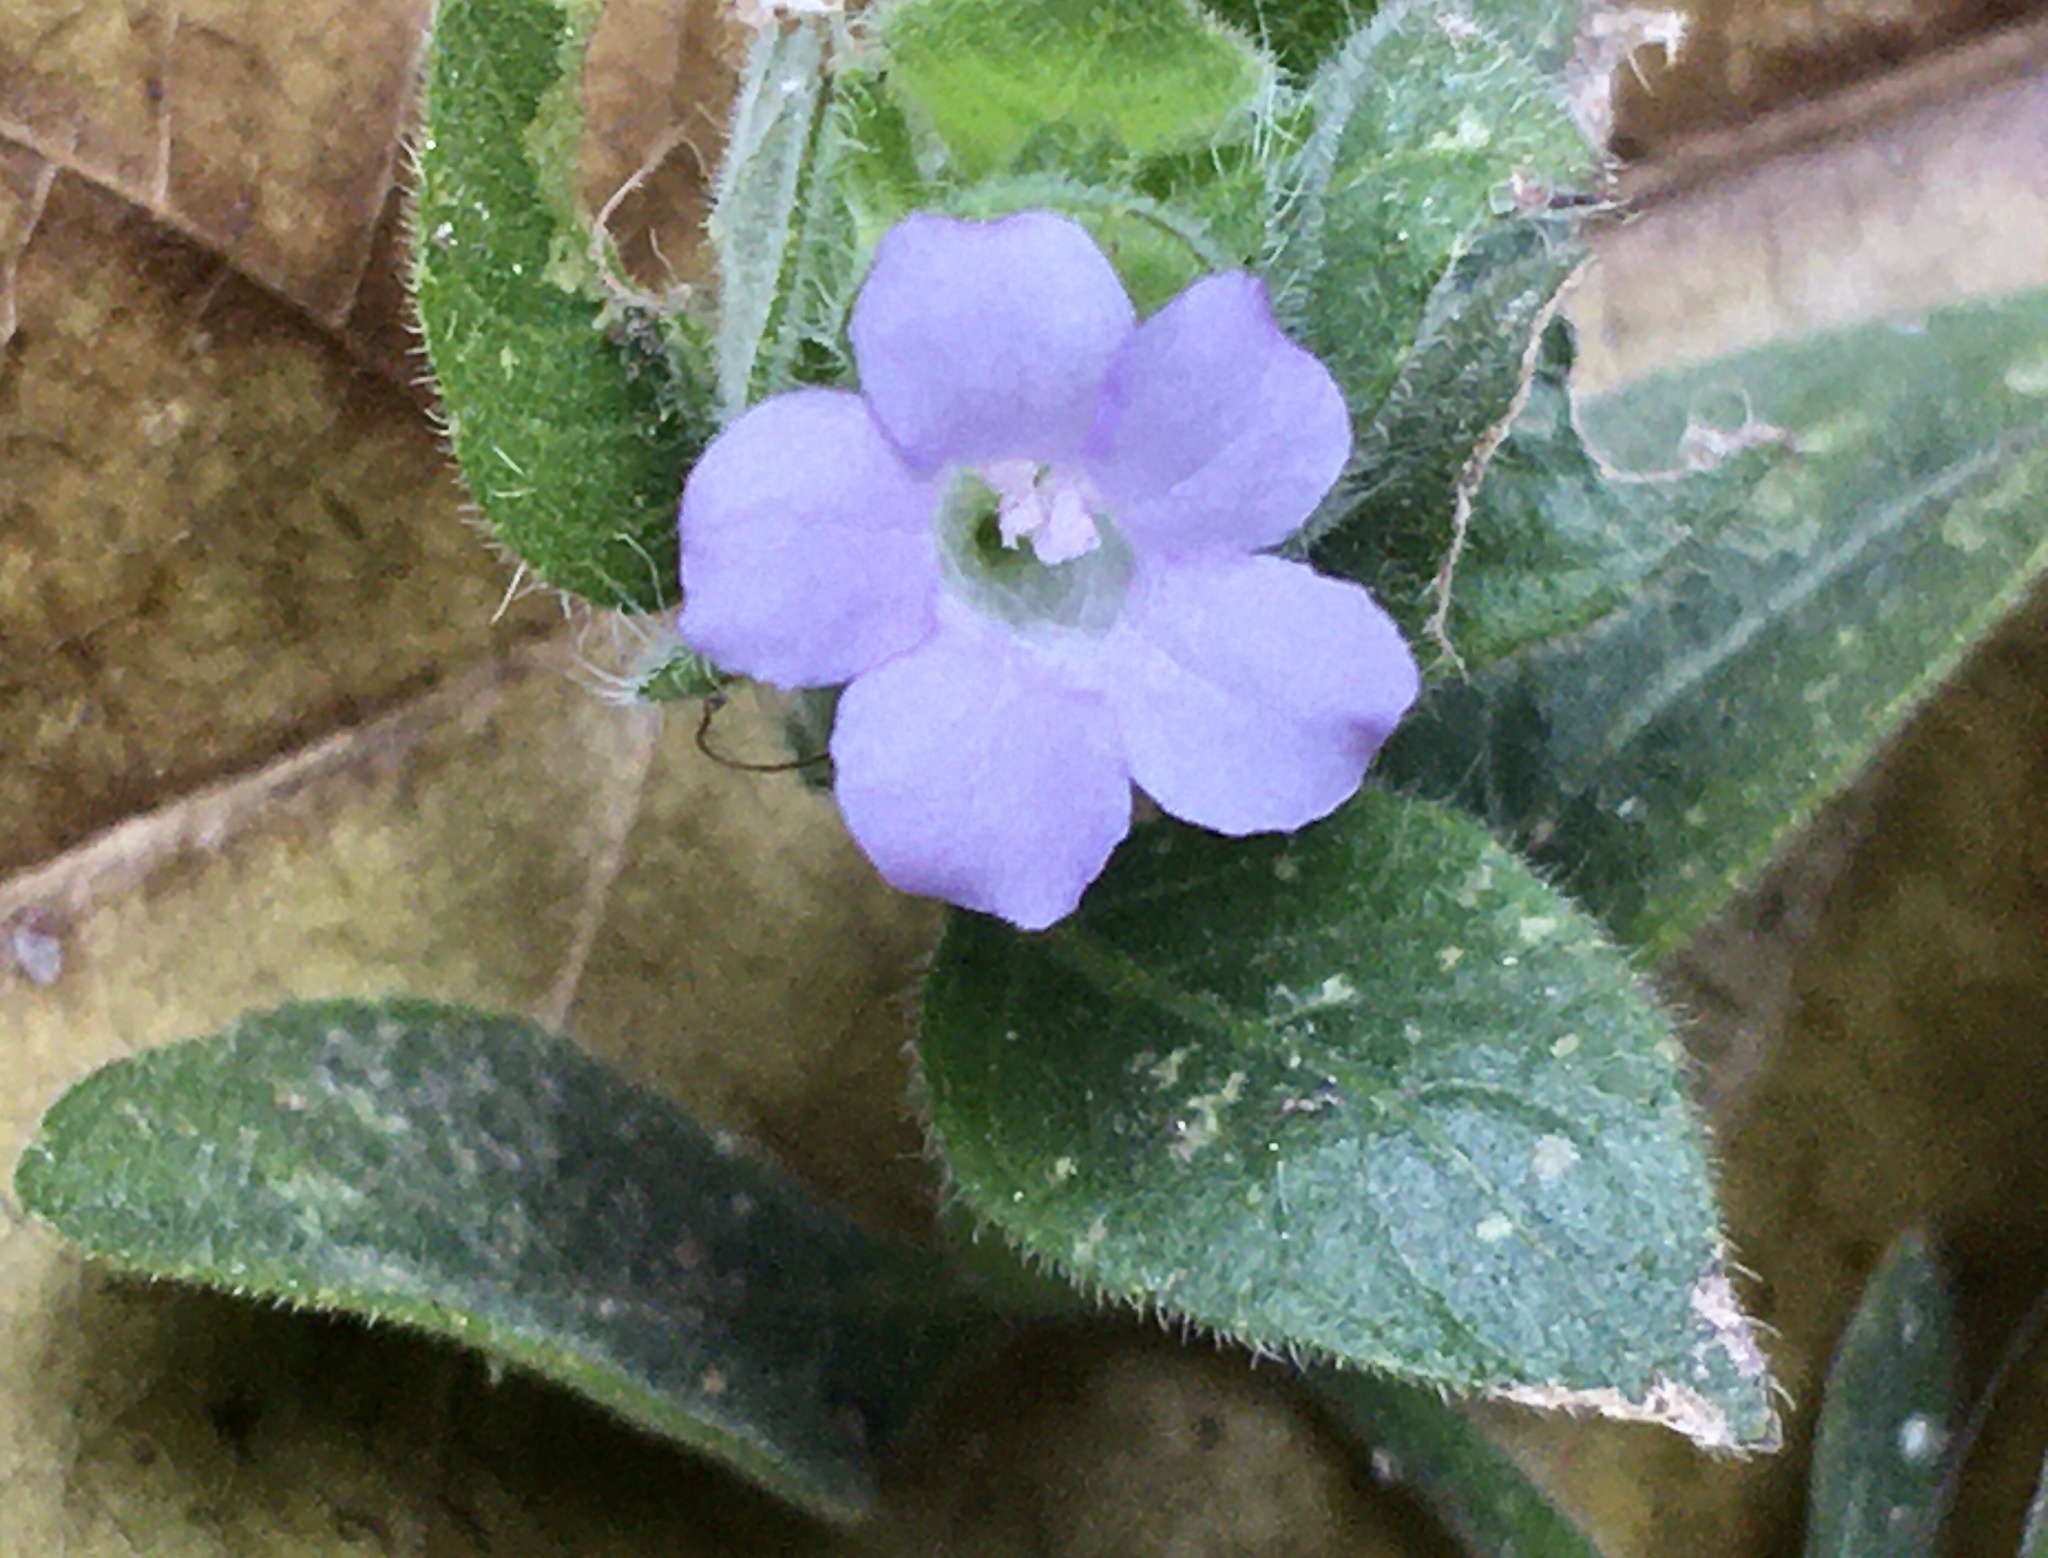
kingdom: Plantae
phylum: Tracheophyta
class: Magnoliopsida
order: Lamiales
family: Acanthaceae
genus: Ruellia
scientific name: Ruellia blechum
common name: Browne's blechum
